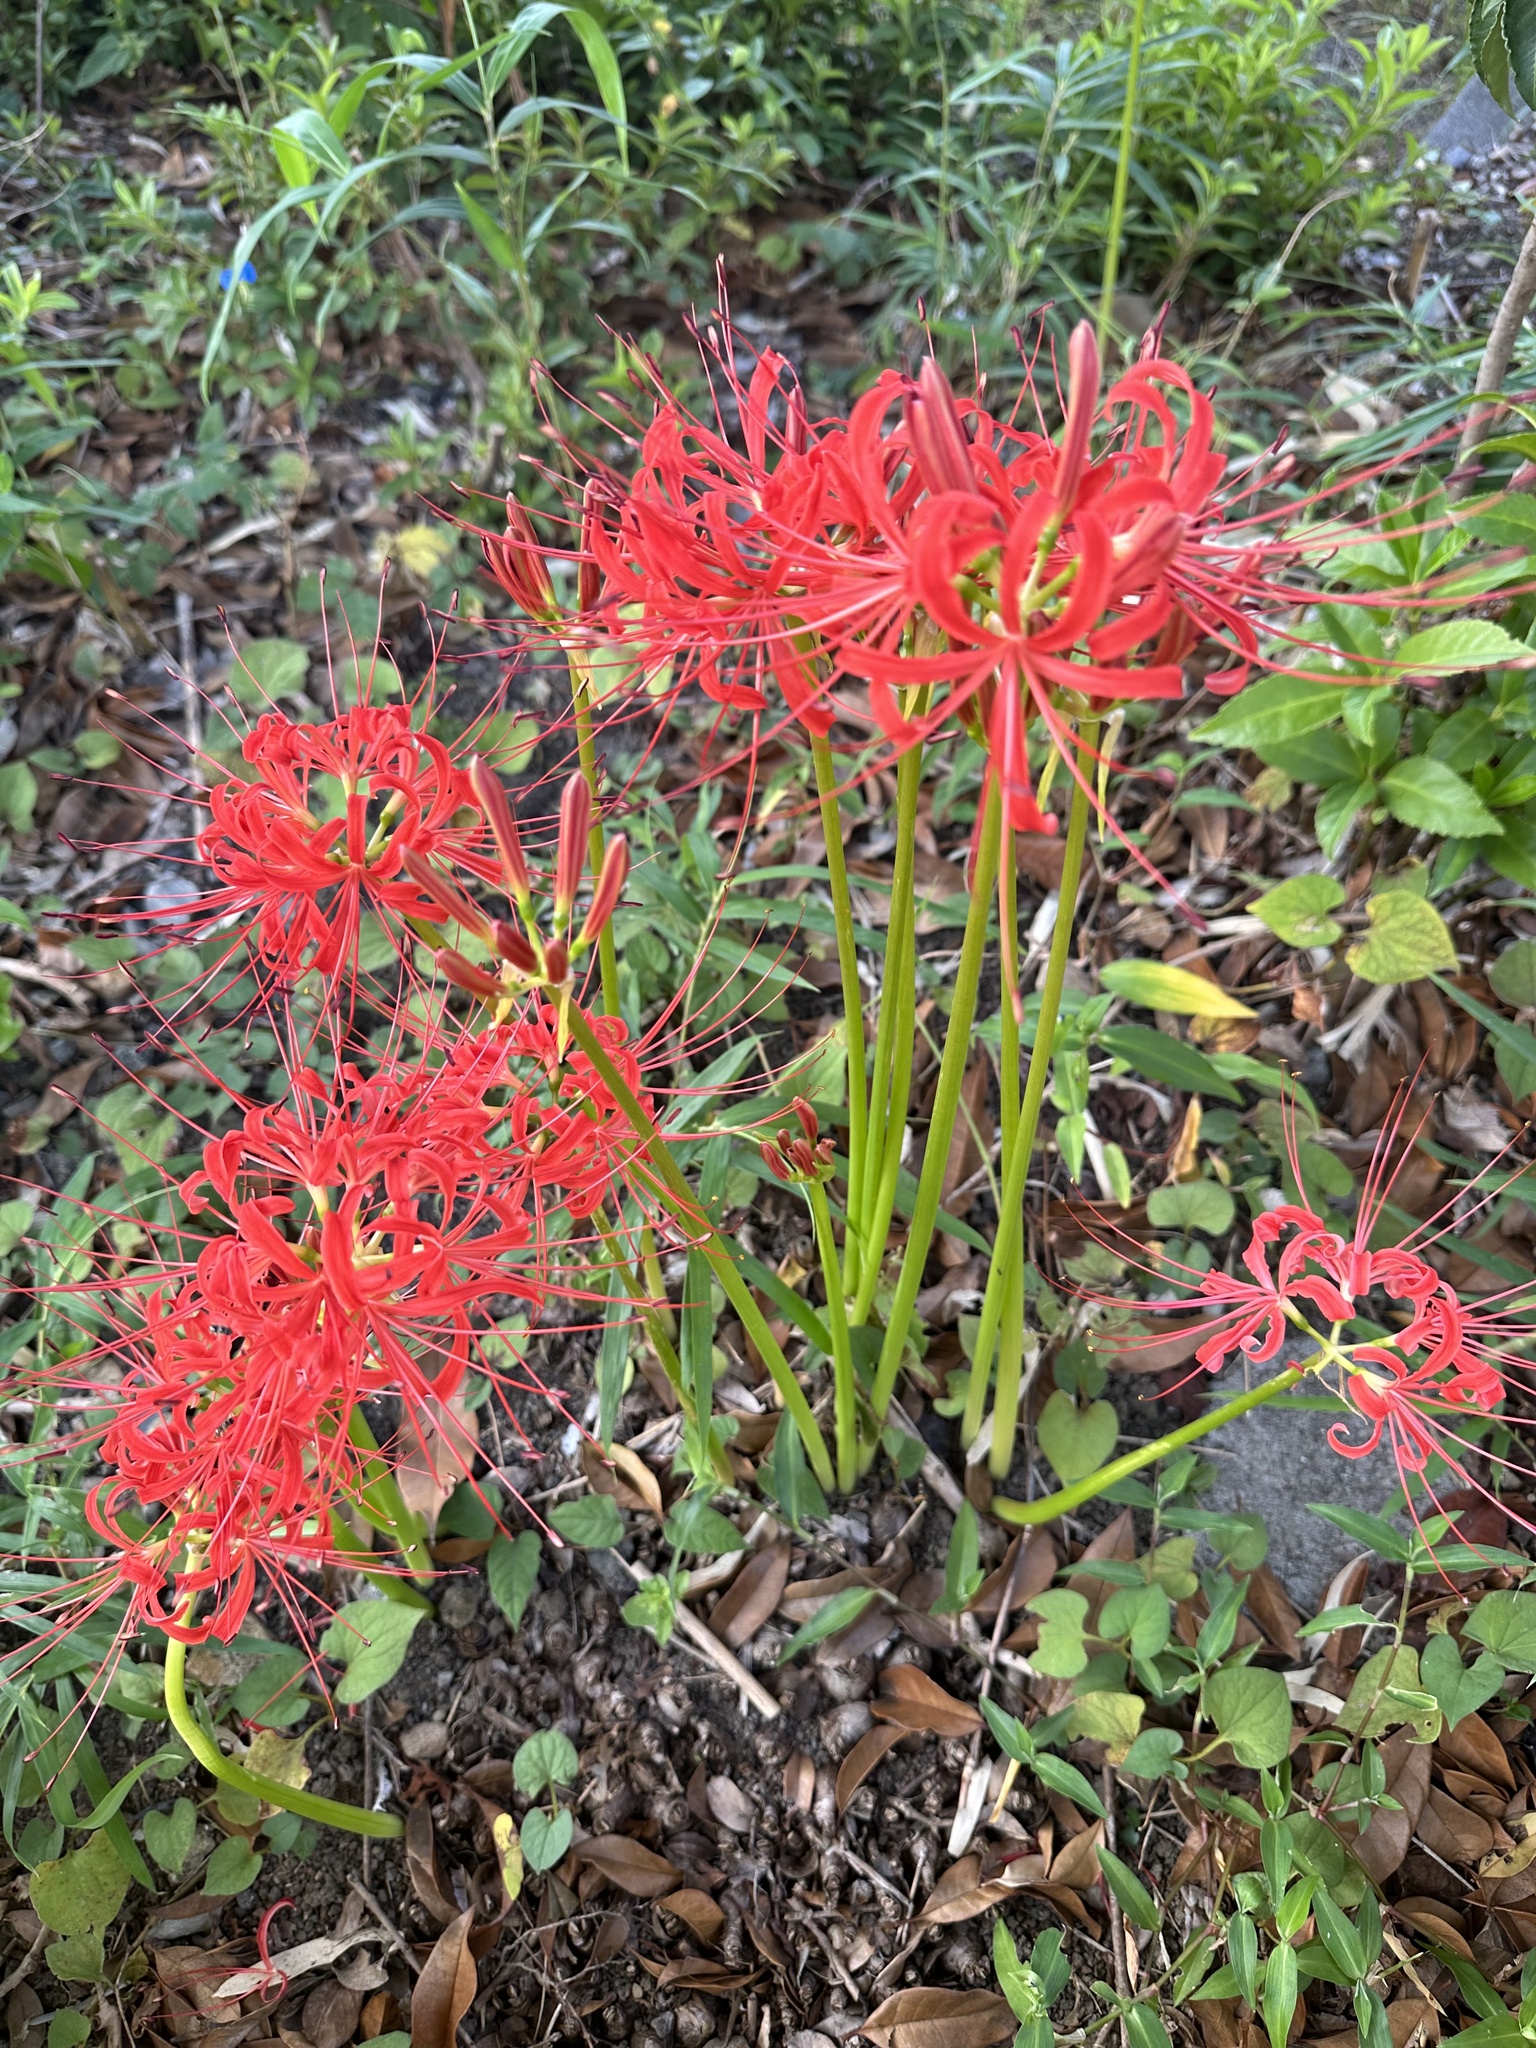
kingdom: Plantae
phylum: Tracheophyta
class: Liliopsida
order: Asparagales
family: Amaryllidaceae
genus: Lycoris
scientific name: Lycoris radiata
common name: Red spider lily
